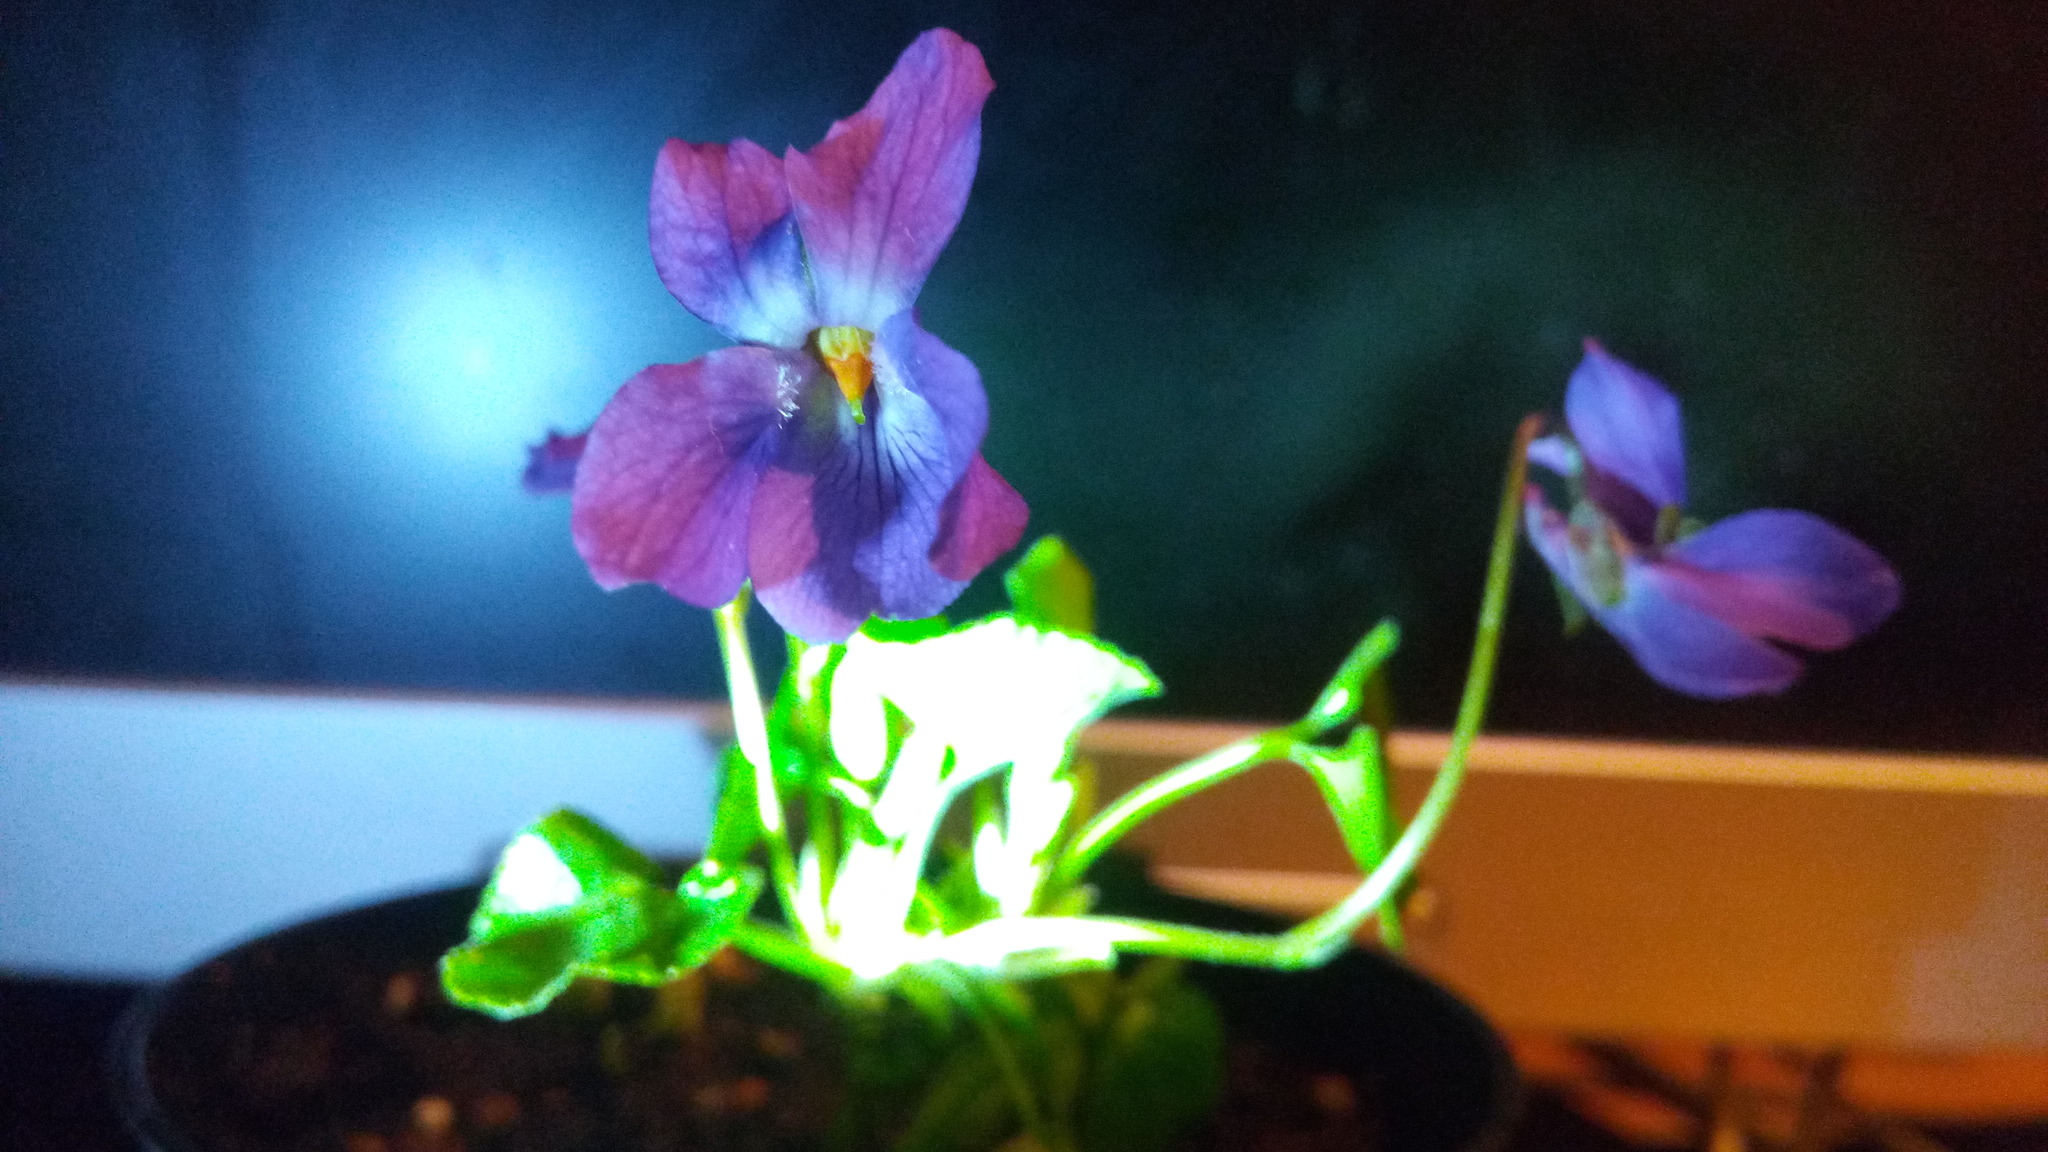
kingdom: Plantae
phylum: Tracheophyta
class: Magnoliopsida
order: Malpighiales
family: Violaceae
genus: Viola
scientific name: Viola odorata
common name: Sweet violet
